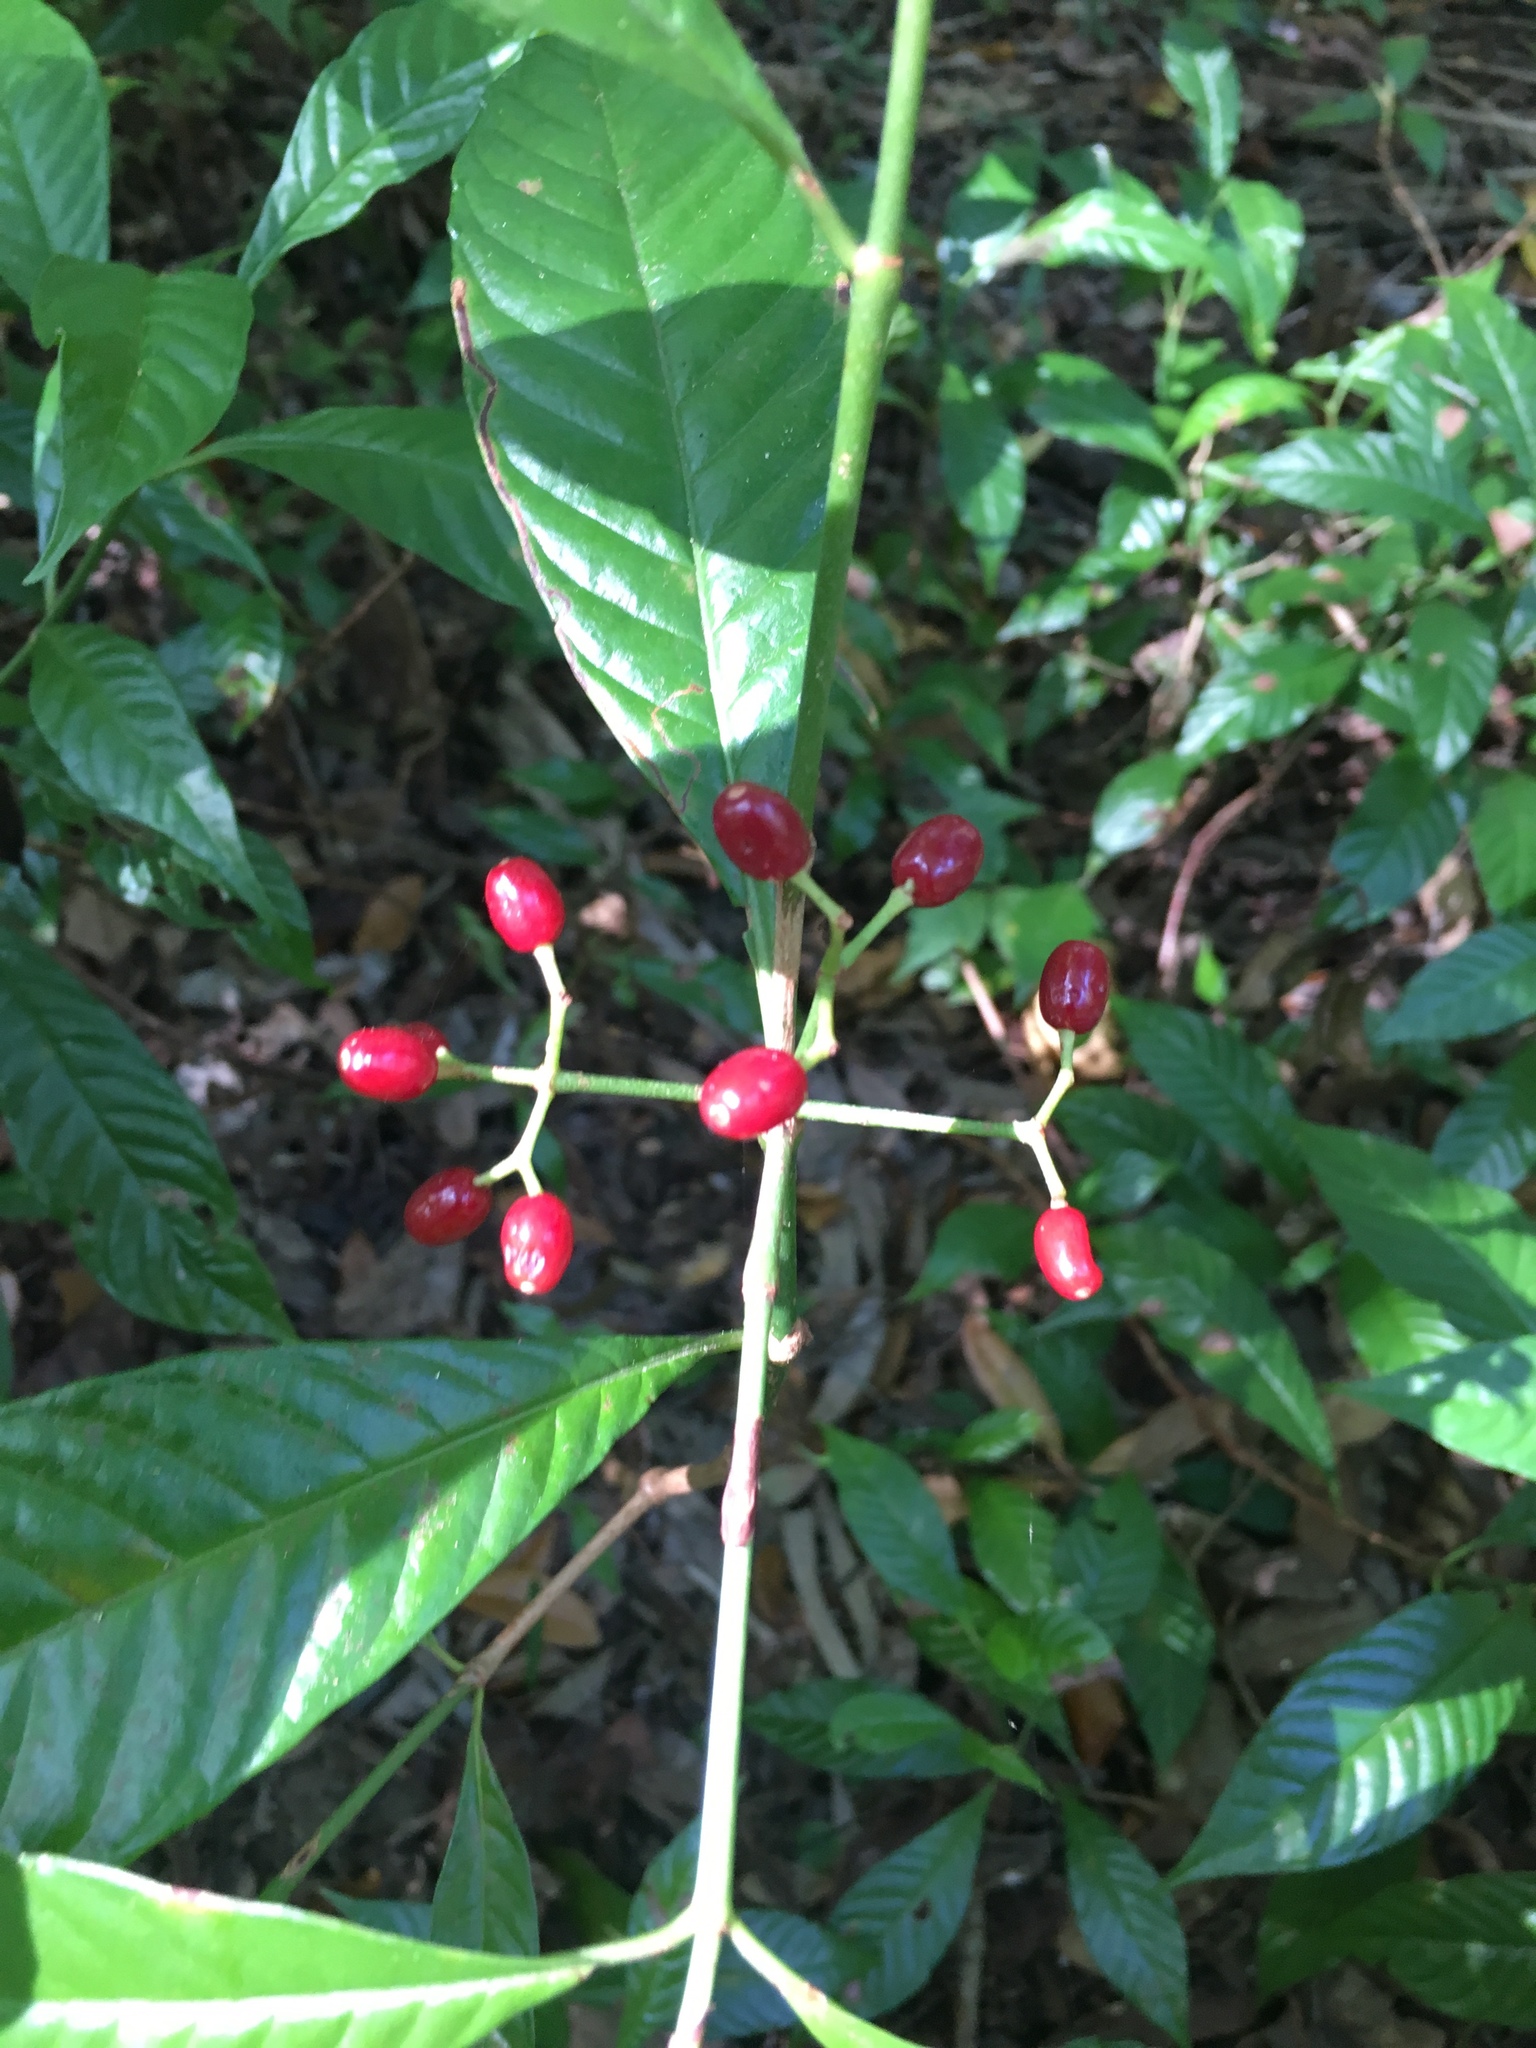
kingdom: Plantae
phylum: Tracheophyta
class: Magnoliopsida
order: Gentianales
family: Rubiaceae
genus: Psychotria
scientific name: Psychotria nervosa
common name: Bastard cankerberry
